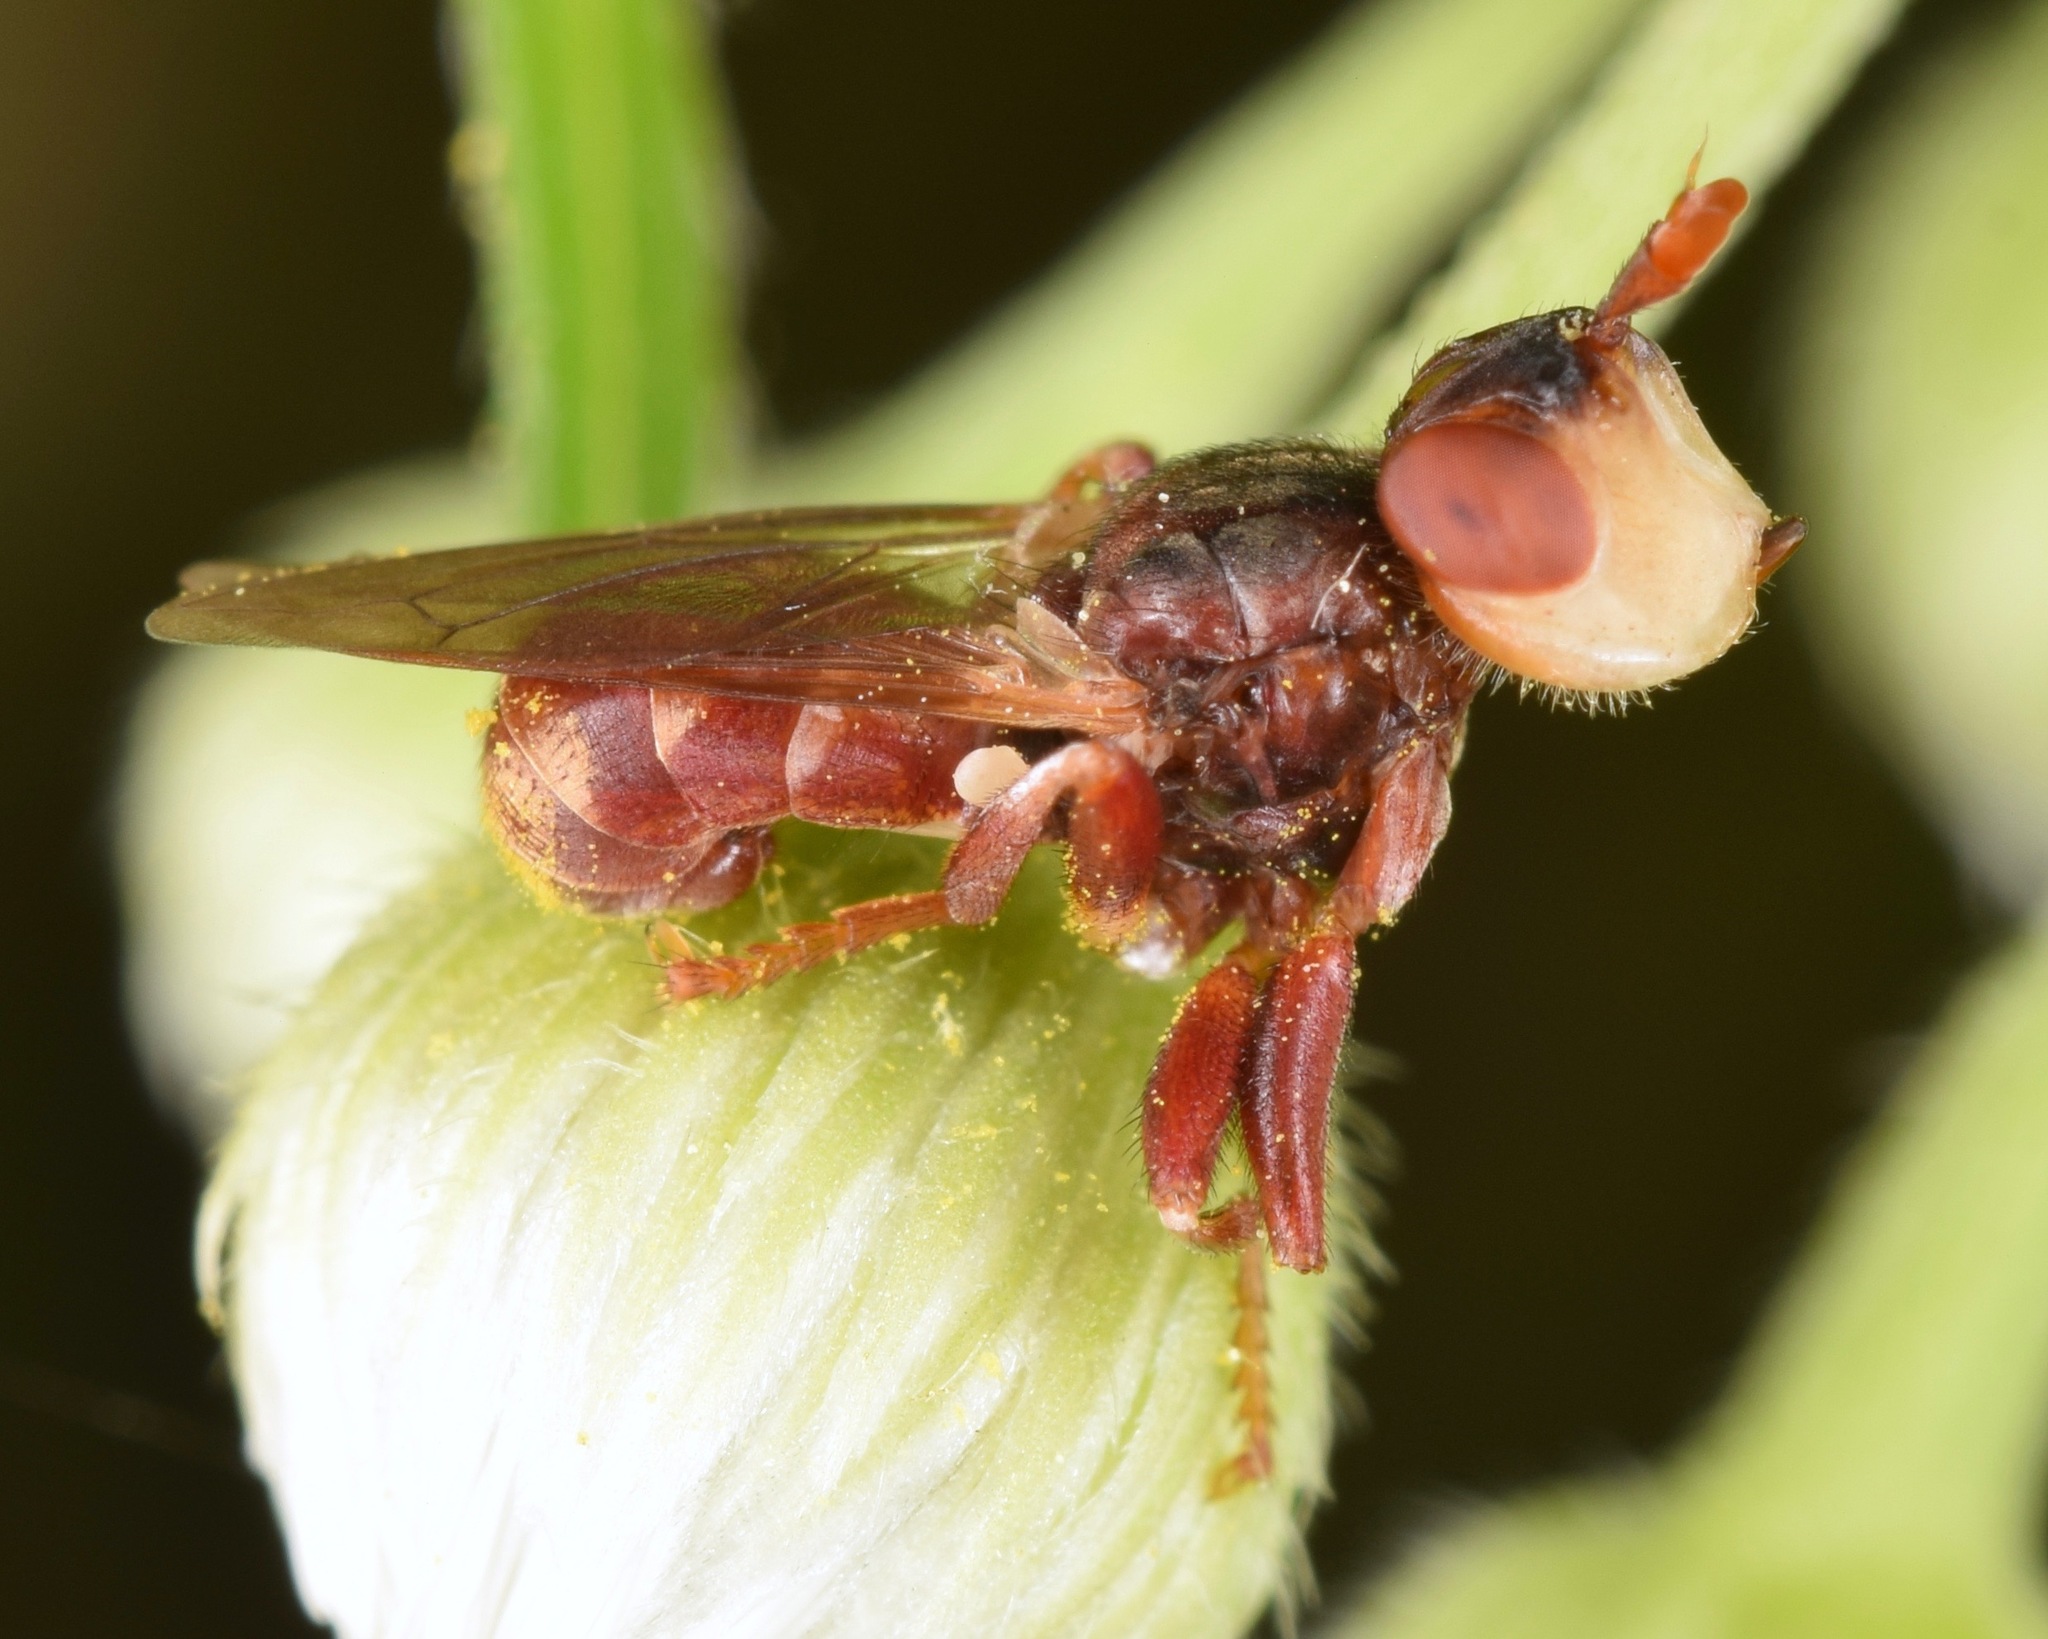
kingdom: Animalia
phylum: Arthropoda
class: Insecta
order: Diptera
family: Conopidae
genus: Myopa
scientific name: Myopa clausa
